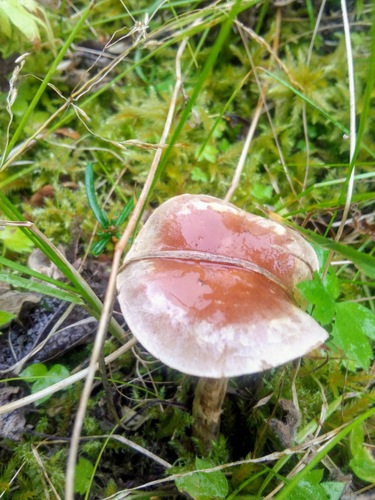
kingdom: Fungi
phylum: Basidiomycota
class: Agaricomycetes
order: Agaricales
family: Hymenogastraceae
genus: Hebeloma
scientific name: Hebeloma
